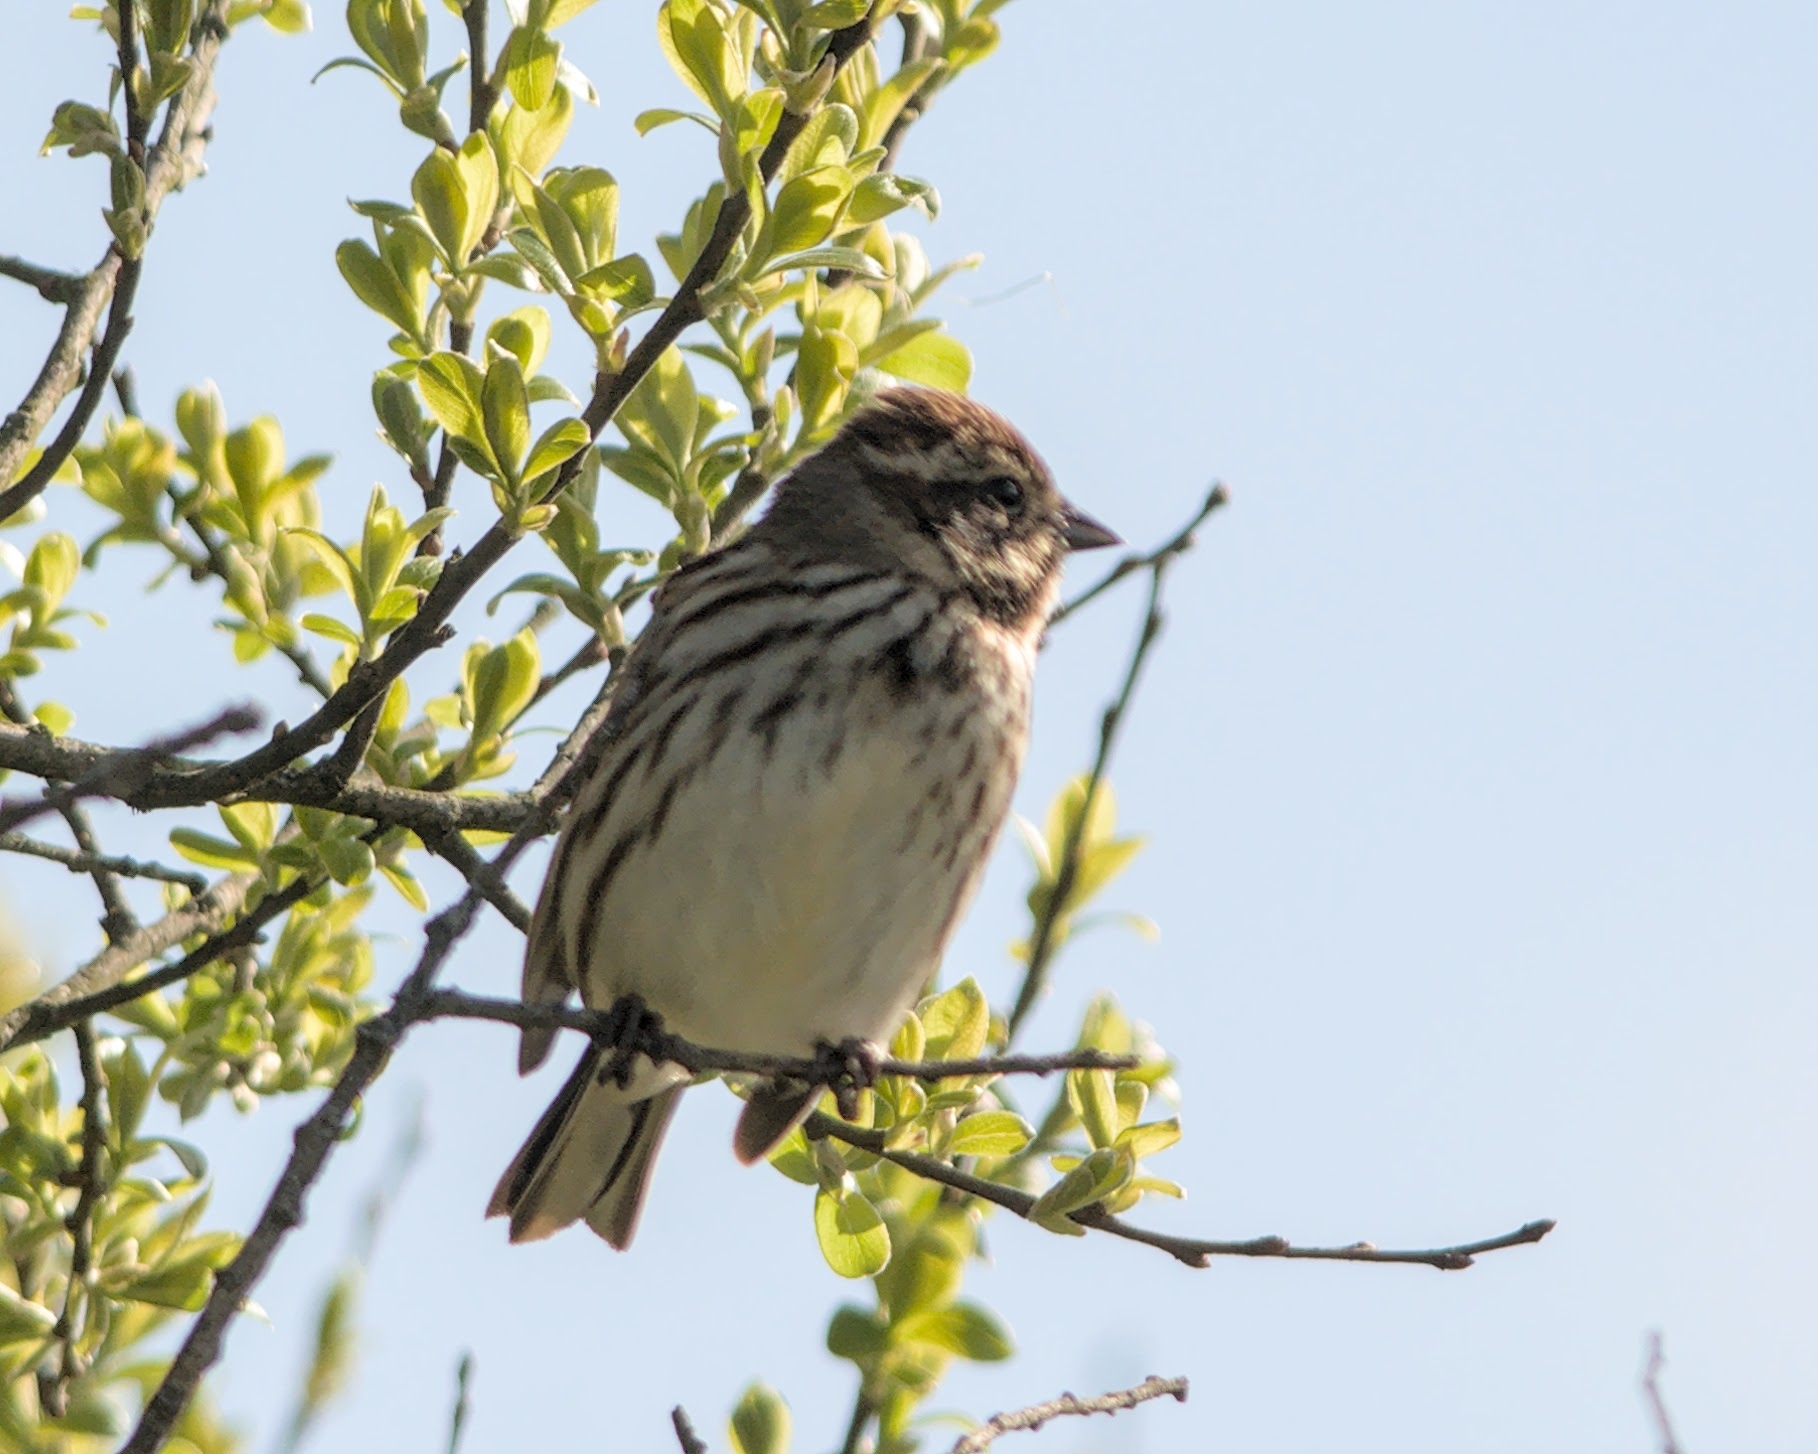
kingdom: Animalia
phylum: Chordata
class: Aves
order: Passeriformes
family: Emberizidae
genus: Emberiza
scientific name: Emberiza schoeniclus
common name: Reed bunting
